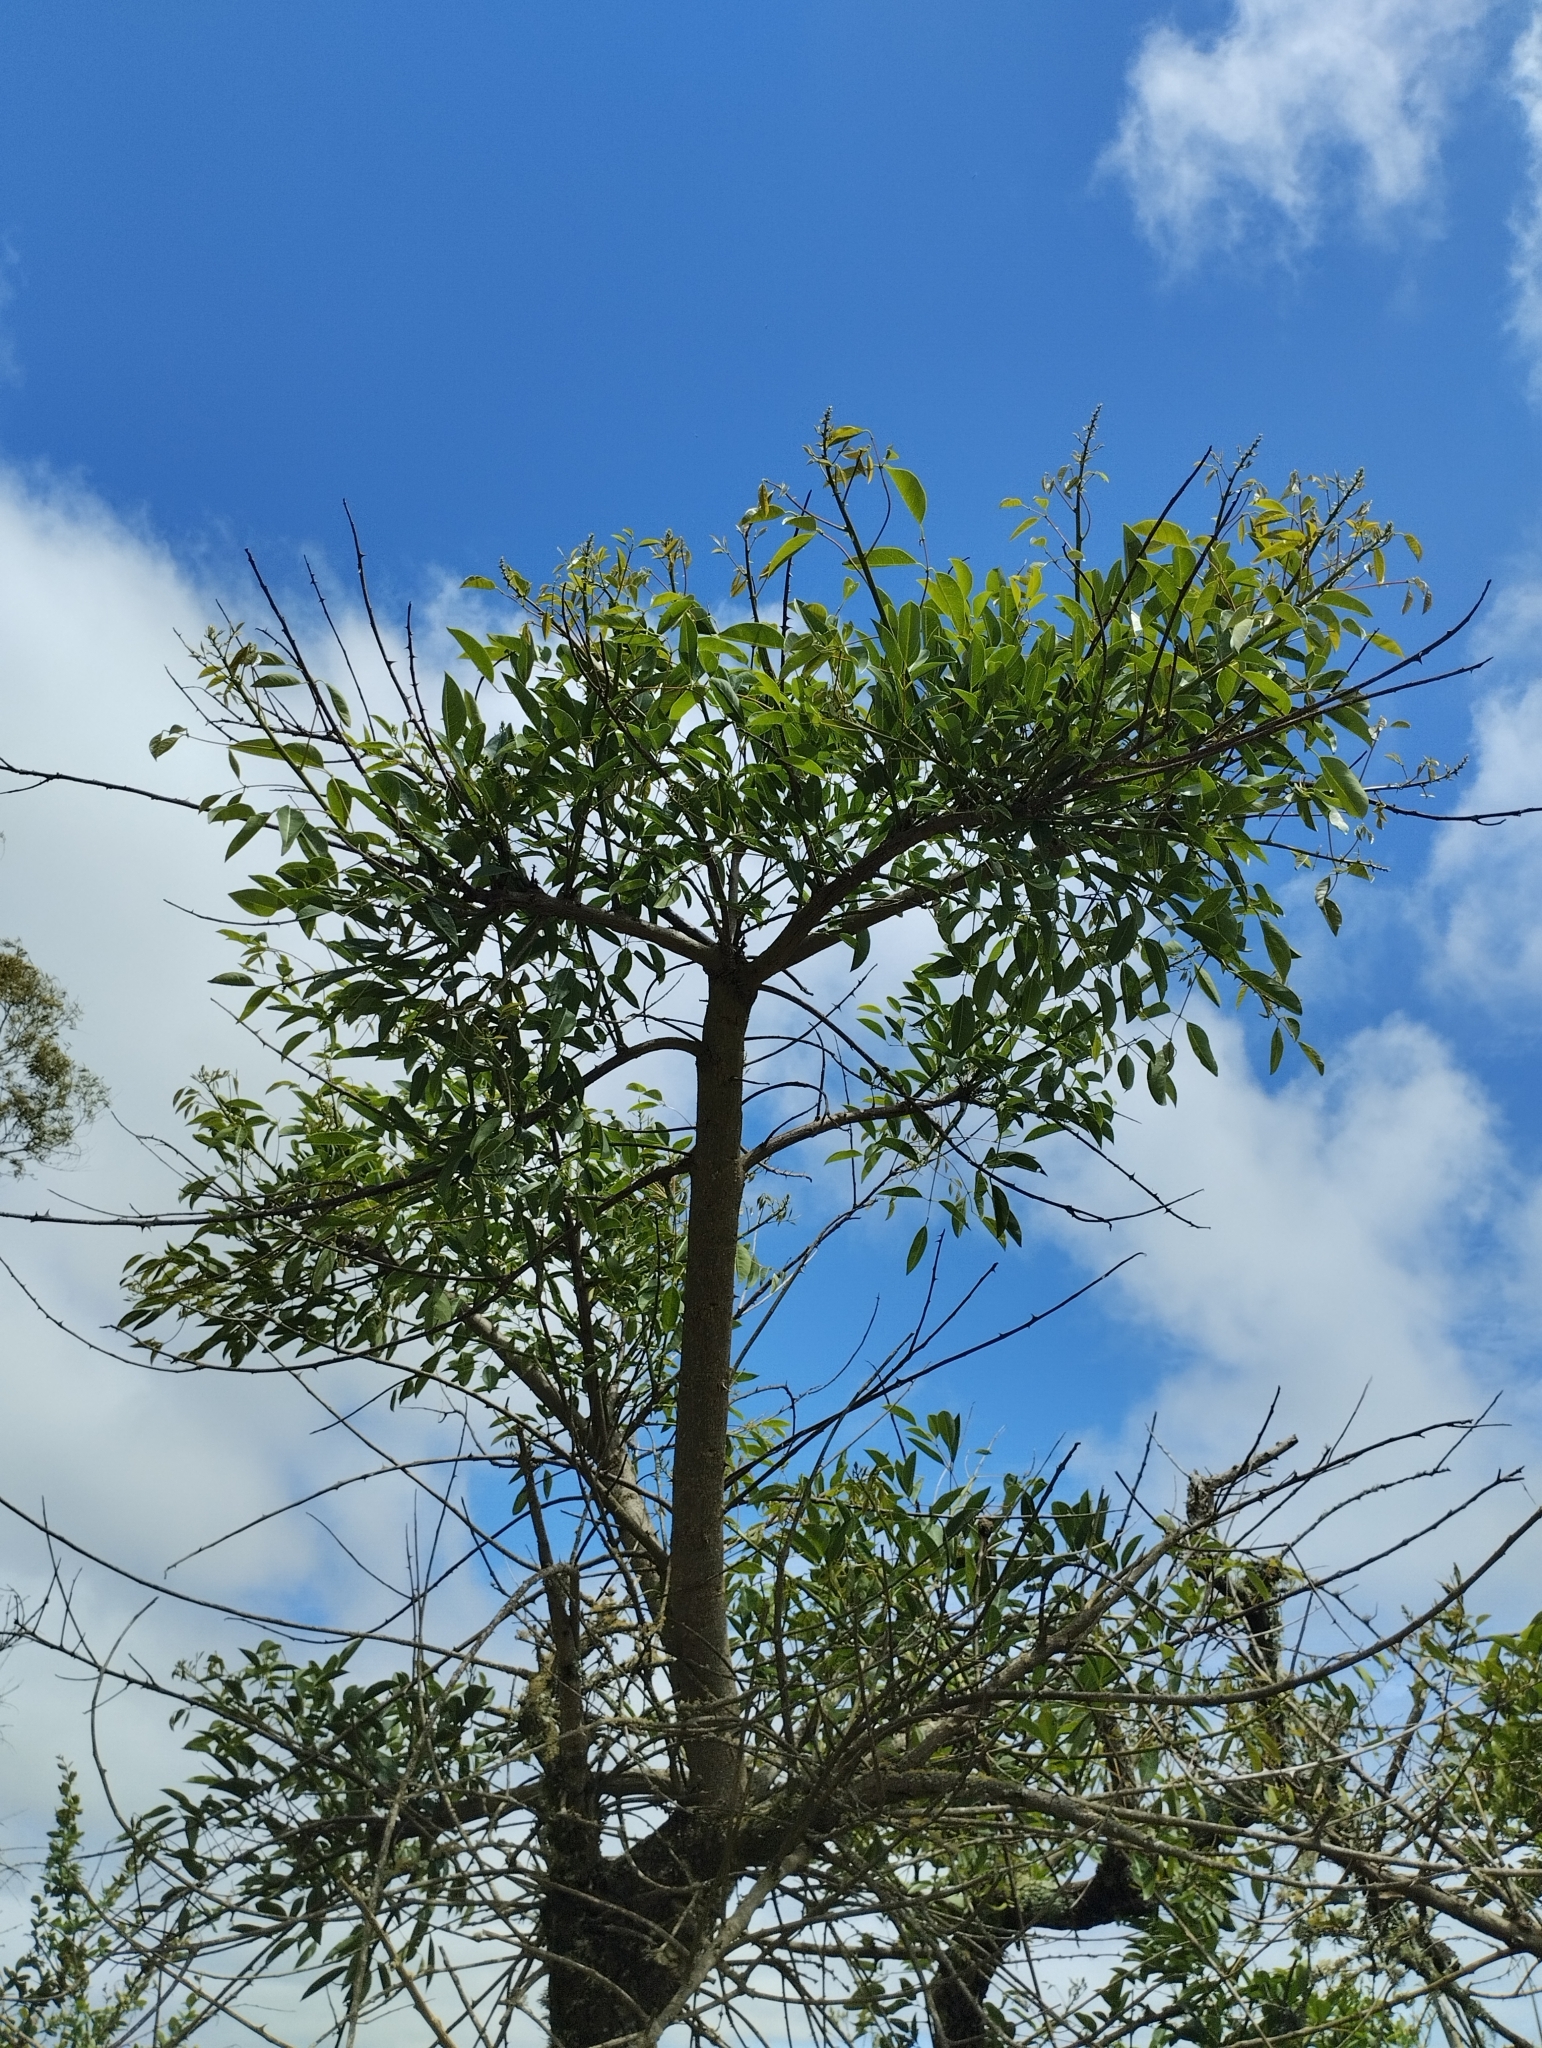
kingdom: Plantae
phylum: Tracheophyta
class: Magnoliopsida
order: Fabales
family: Fabaceae
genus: Erythrina
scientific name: Erythrina crista-galli
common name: Cockspur coral tree
